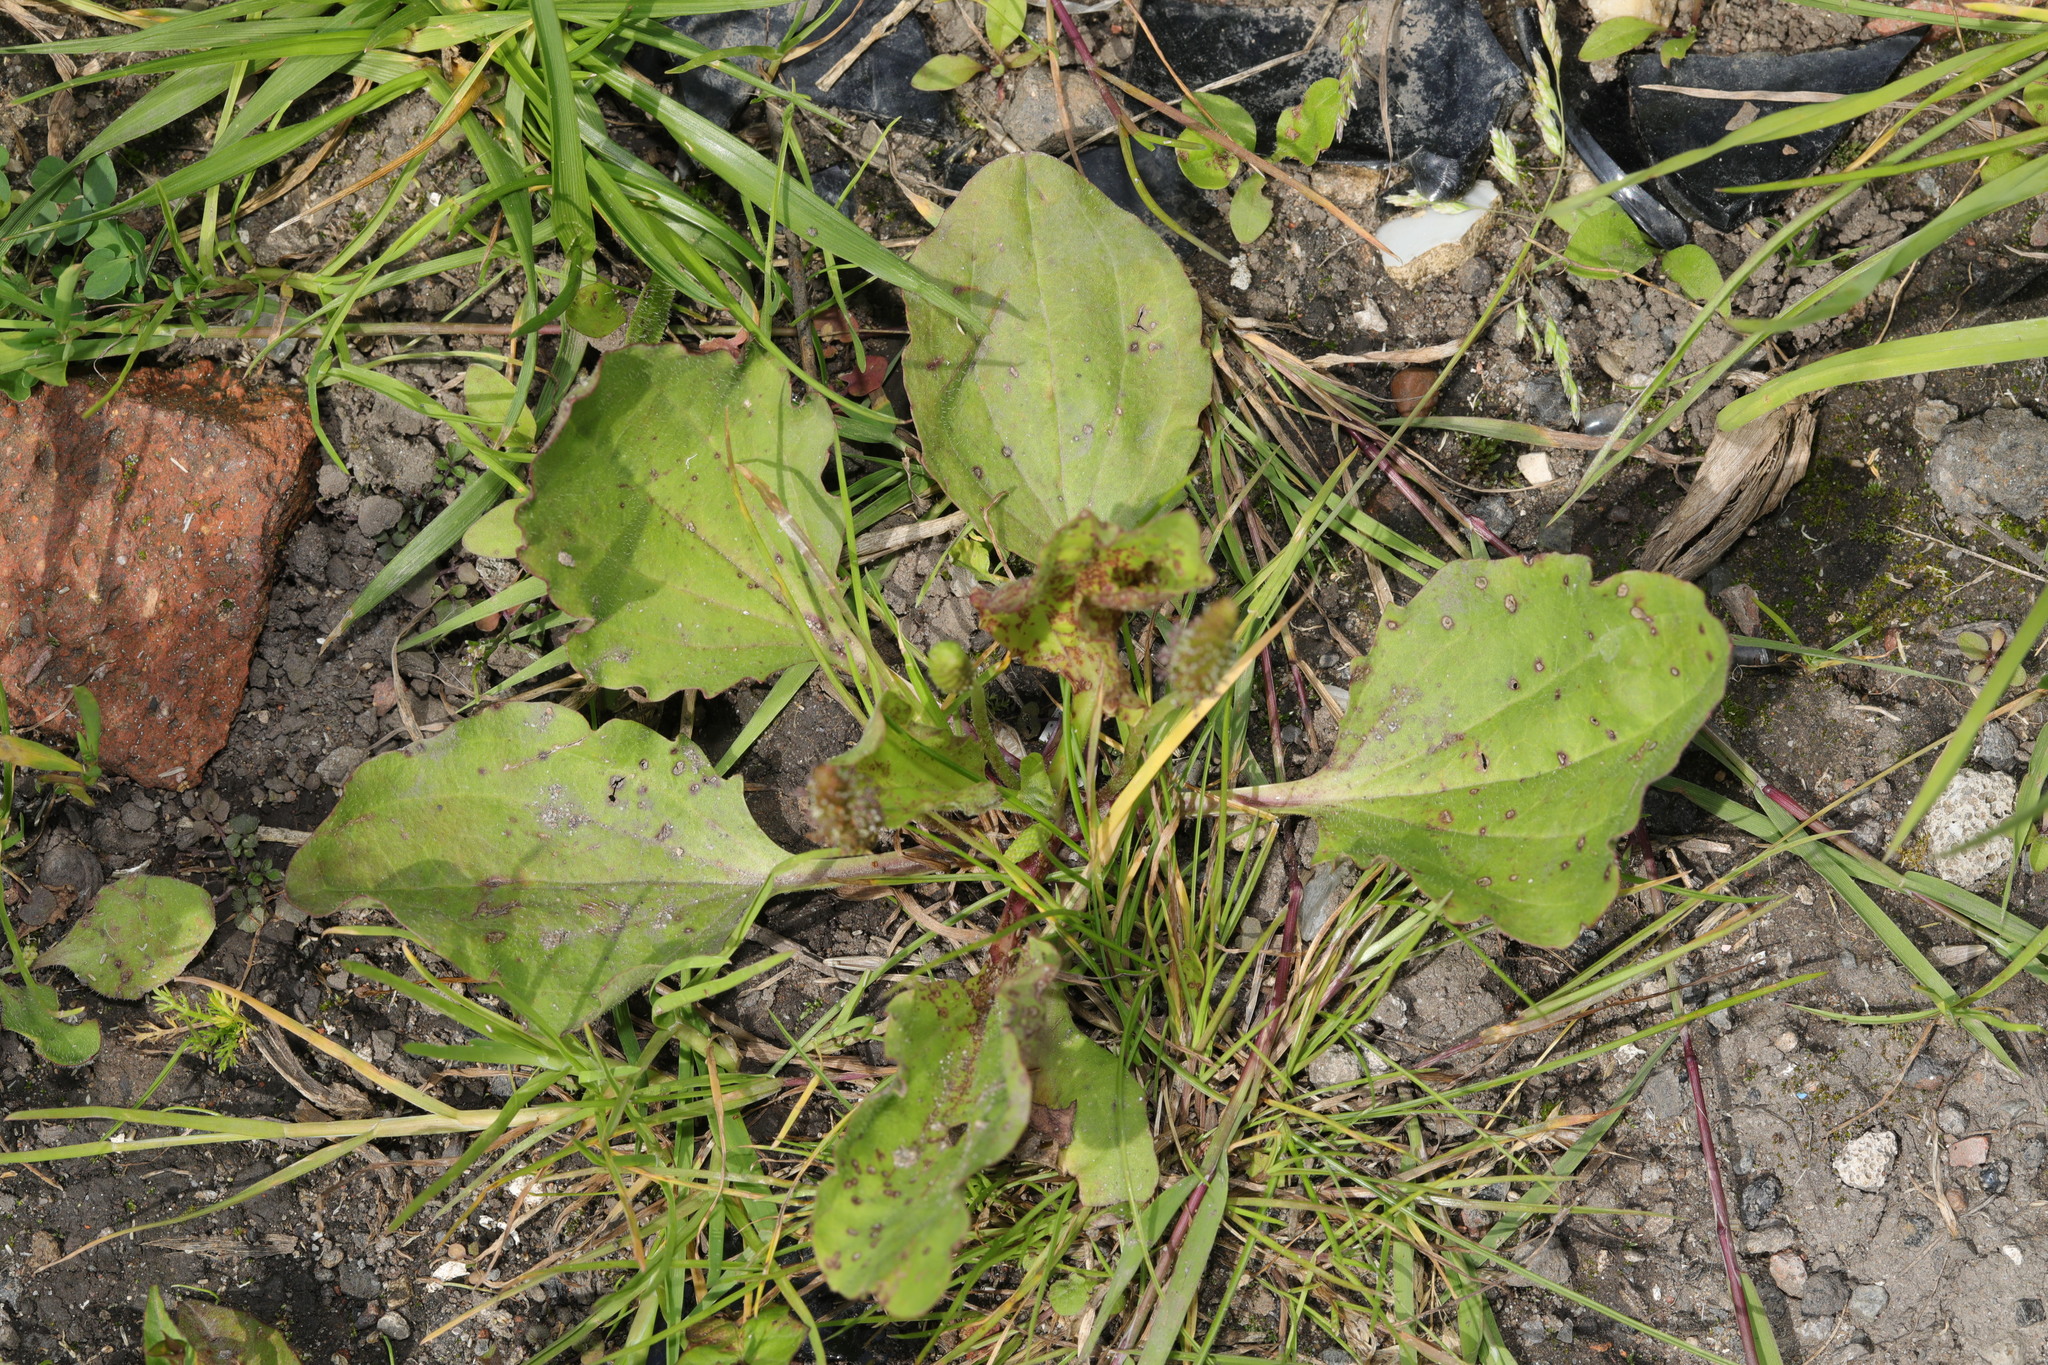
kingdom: Plantae
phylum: Tracheophyta
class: Magnoliopsida
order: Lamiales
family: Plantaginaceae
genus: Plantago
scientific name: Plantago major
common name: Common plantain
